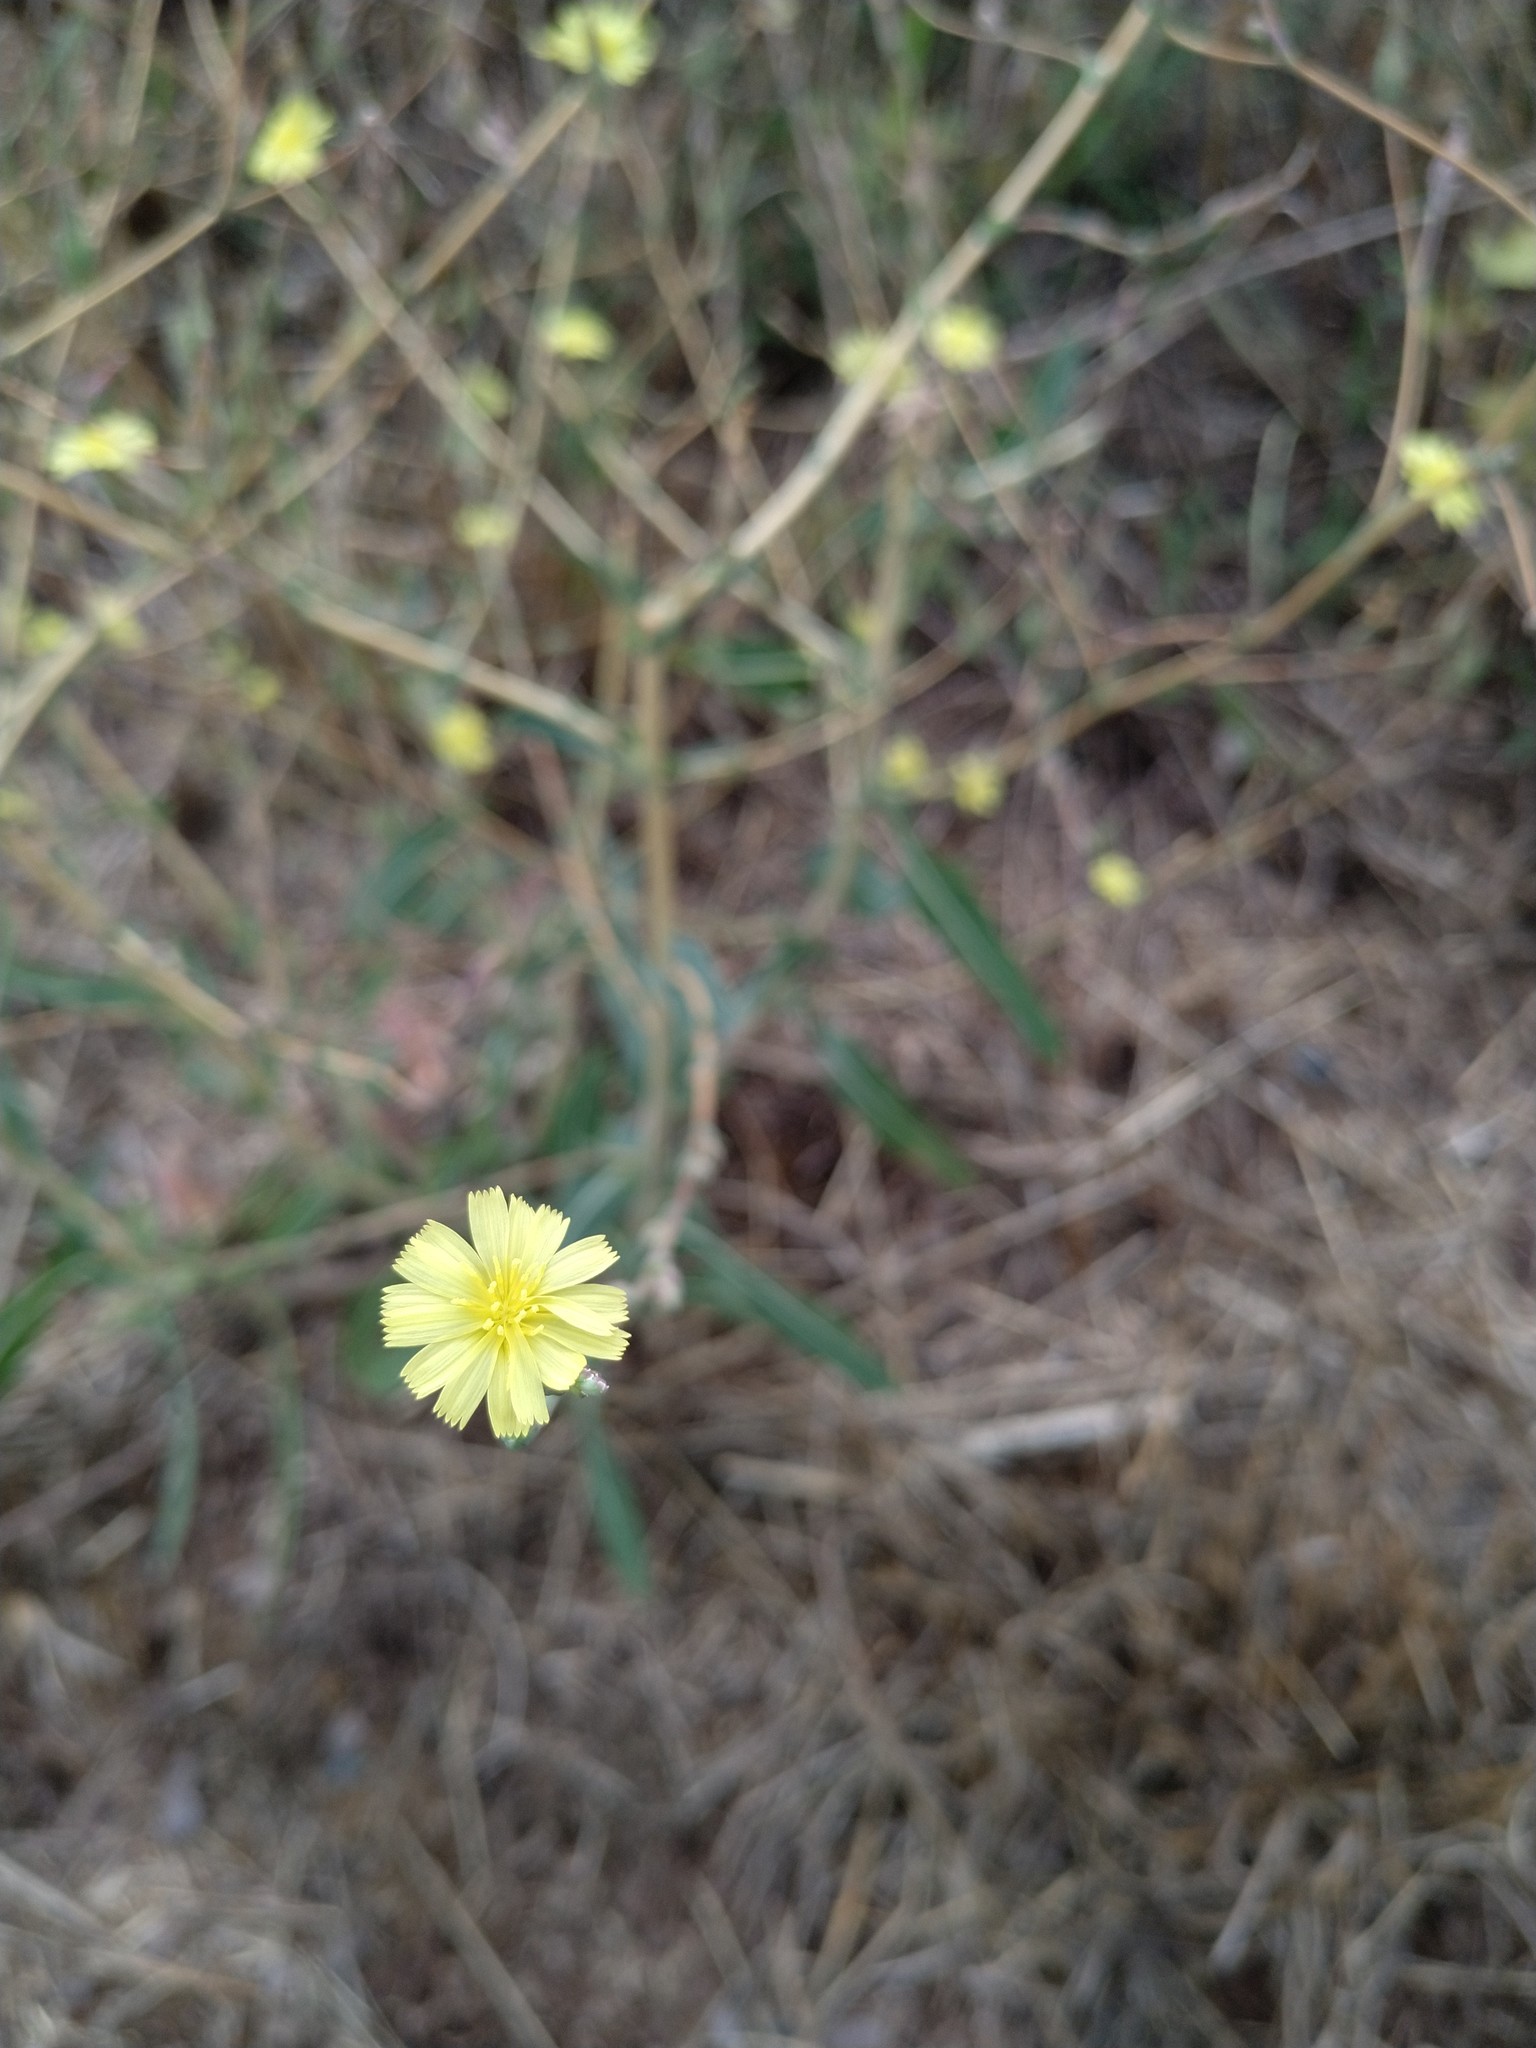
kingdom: Plantae
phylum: Tracheophyta
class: Magnoliopsida
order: Asterales
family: Asteraceae
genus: Lactuca
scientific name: Lactuca serriola
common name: Prickly lettuce
